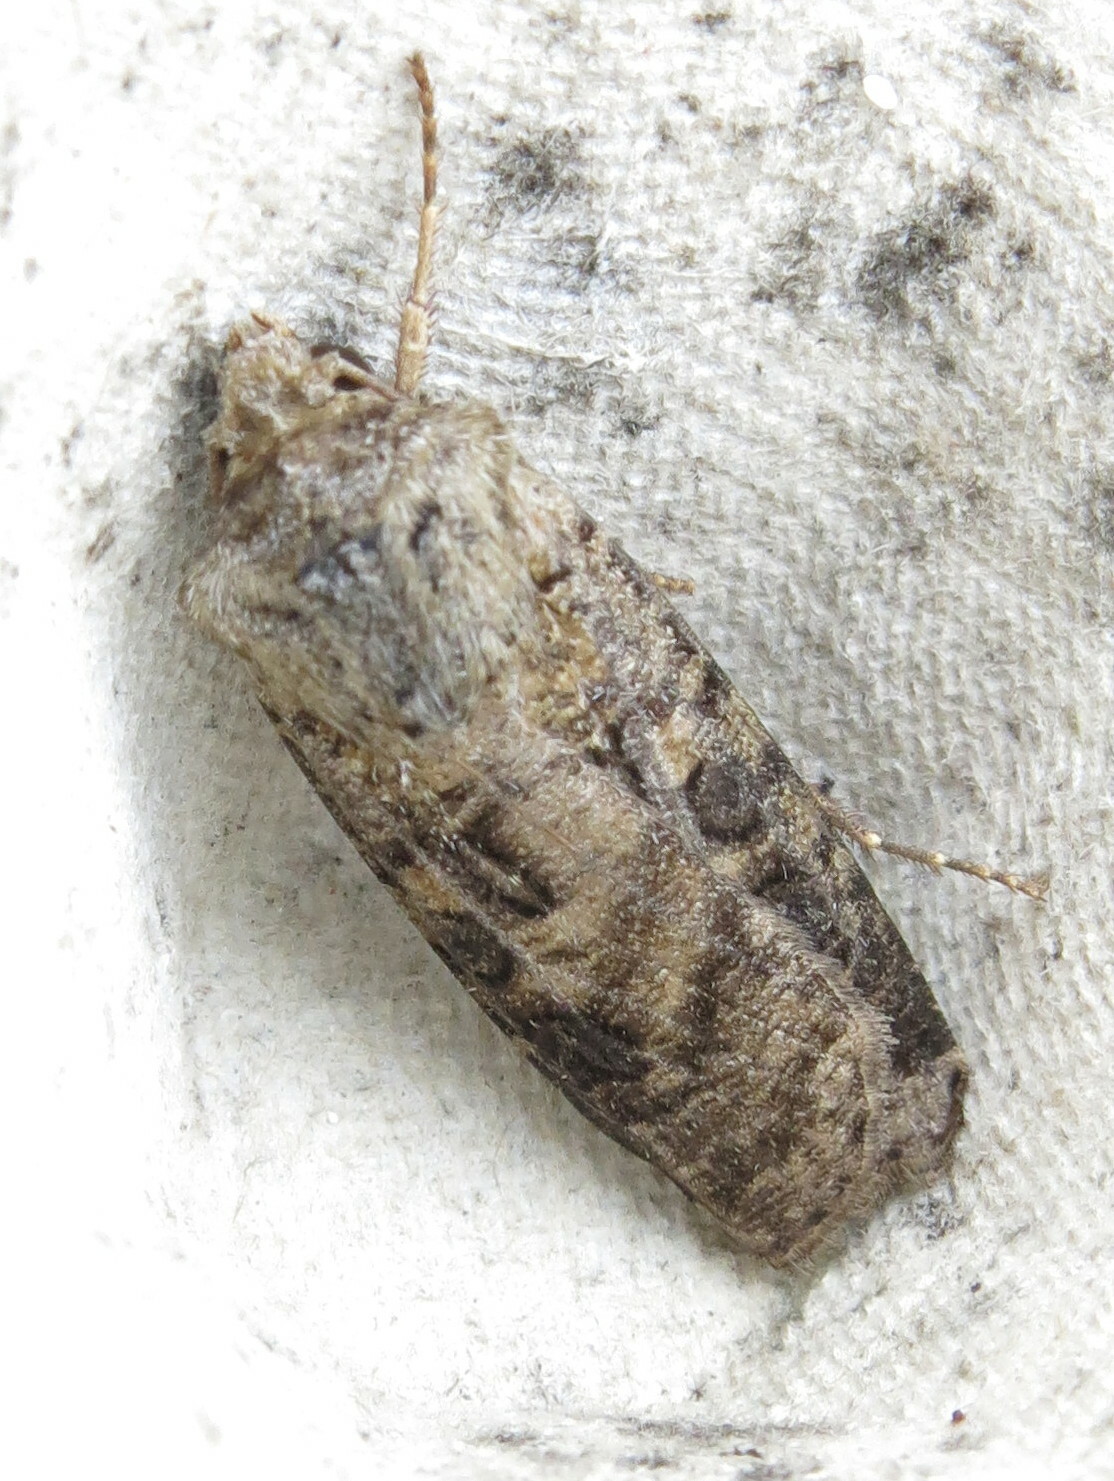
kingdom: Animalia
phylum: Arthropoda
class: Insecta
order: Lepidoptera
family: Noctuidae
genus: Agrotis
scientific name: Agrotis clavis
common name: Heart and club
